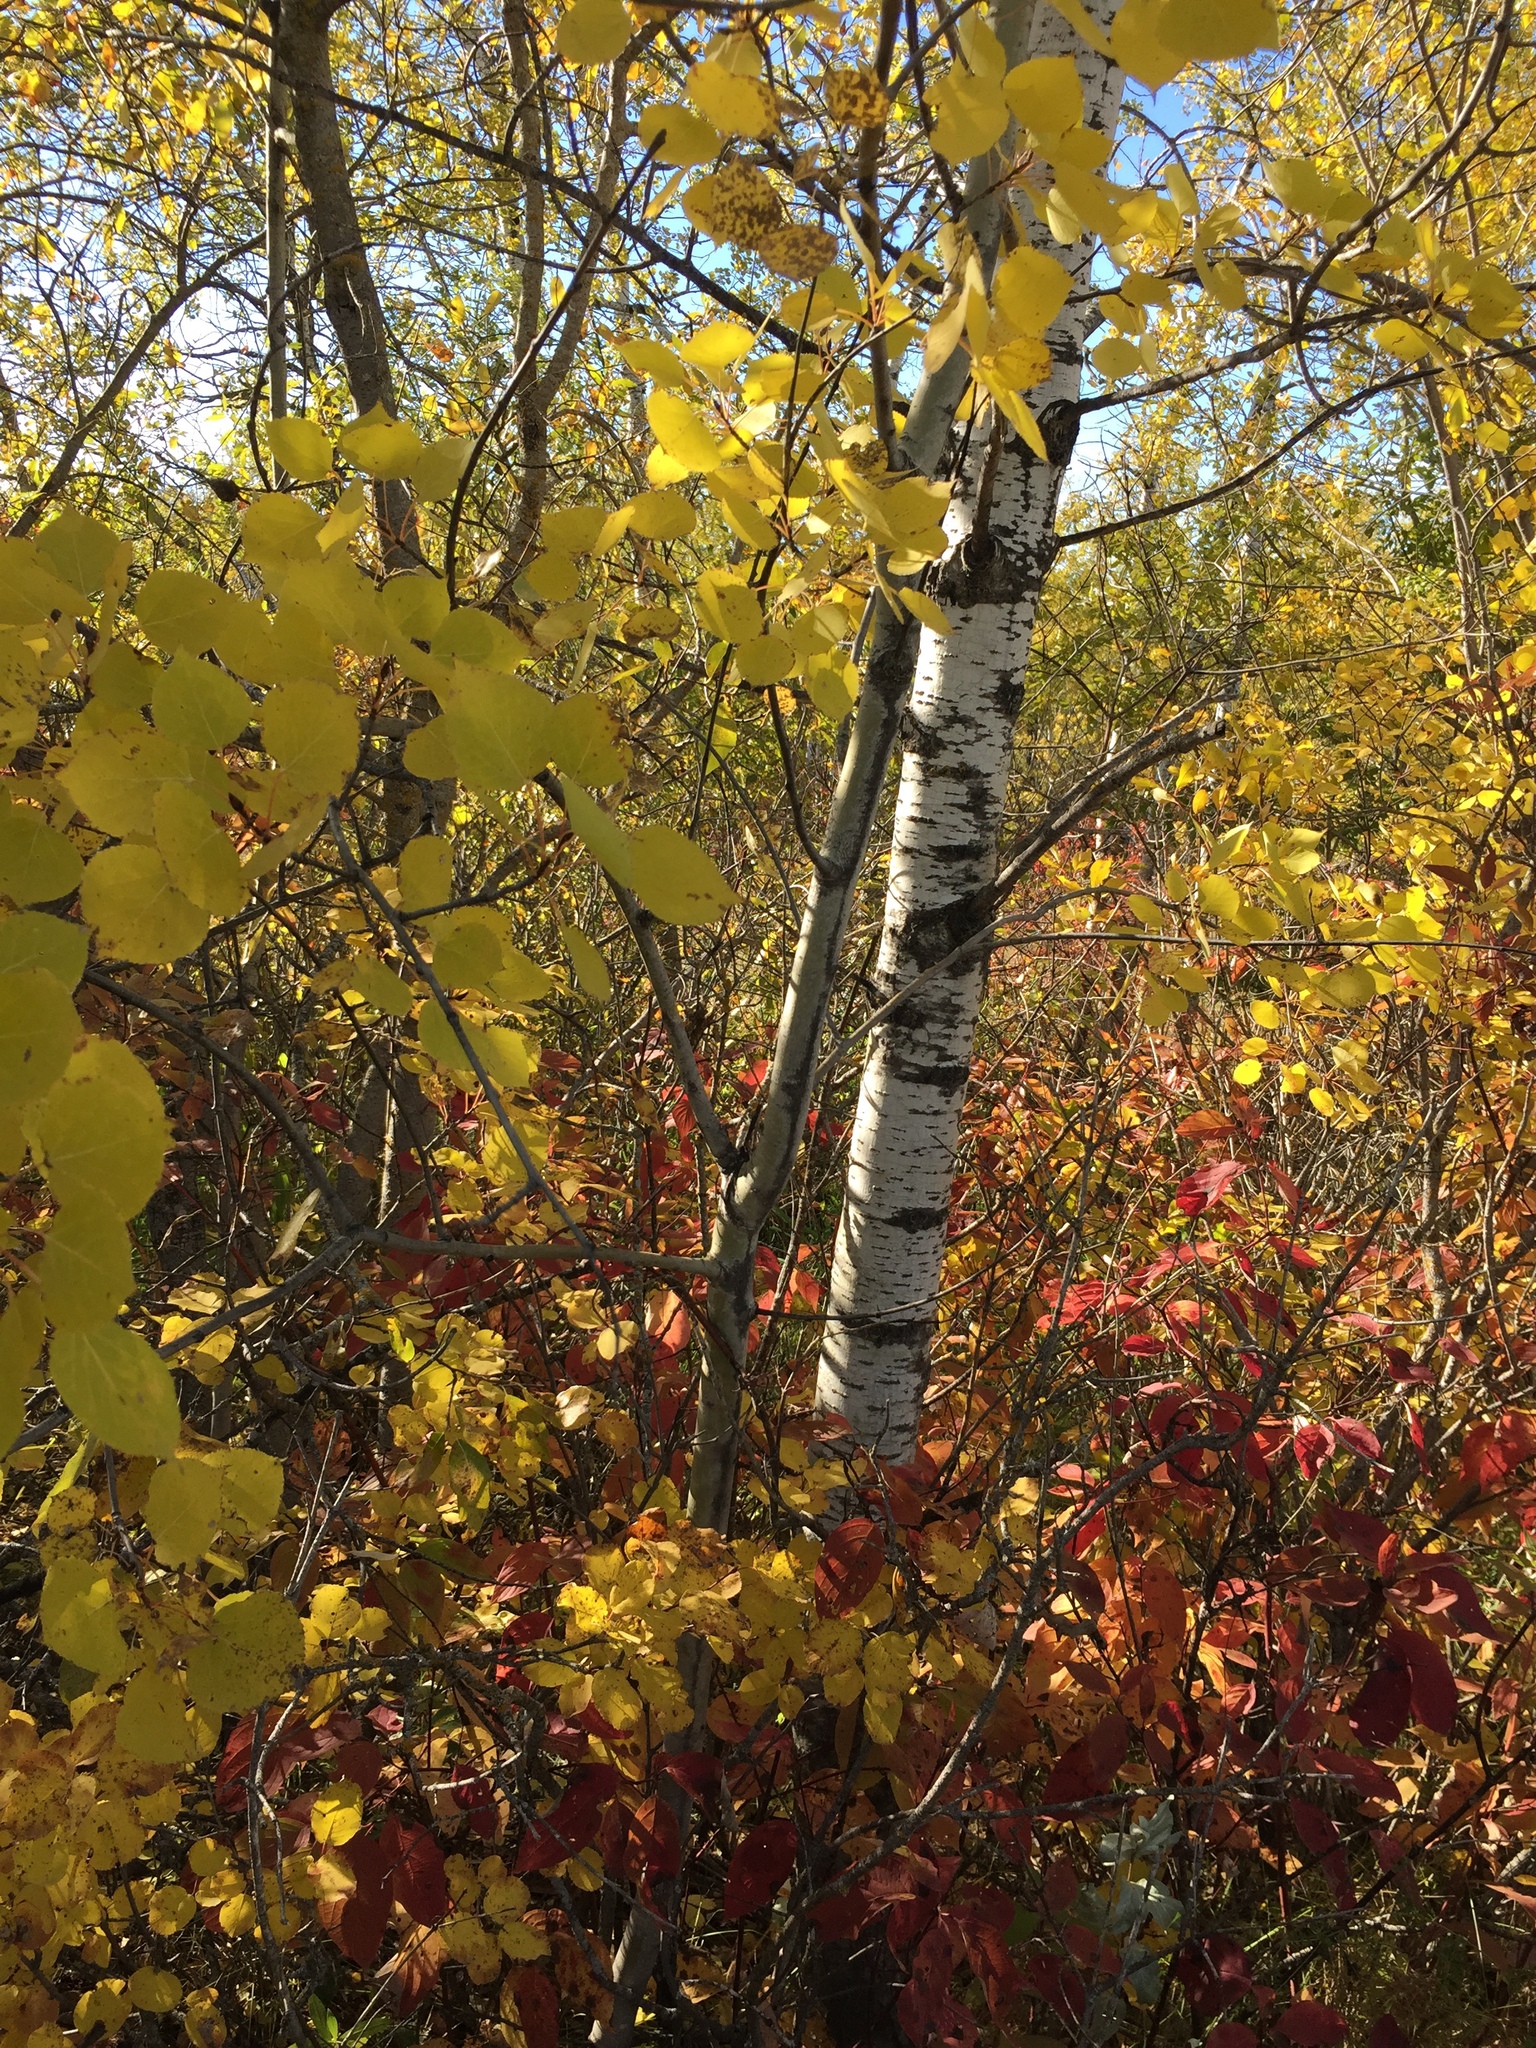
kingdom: Plantae
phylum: Tracheophyta
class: Magnoliopsida
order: Malpighiales
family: Salicaceae
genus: Populus
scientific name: Populus tremuloides
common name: Quaking aspen
